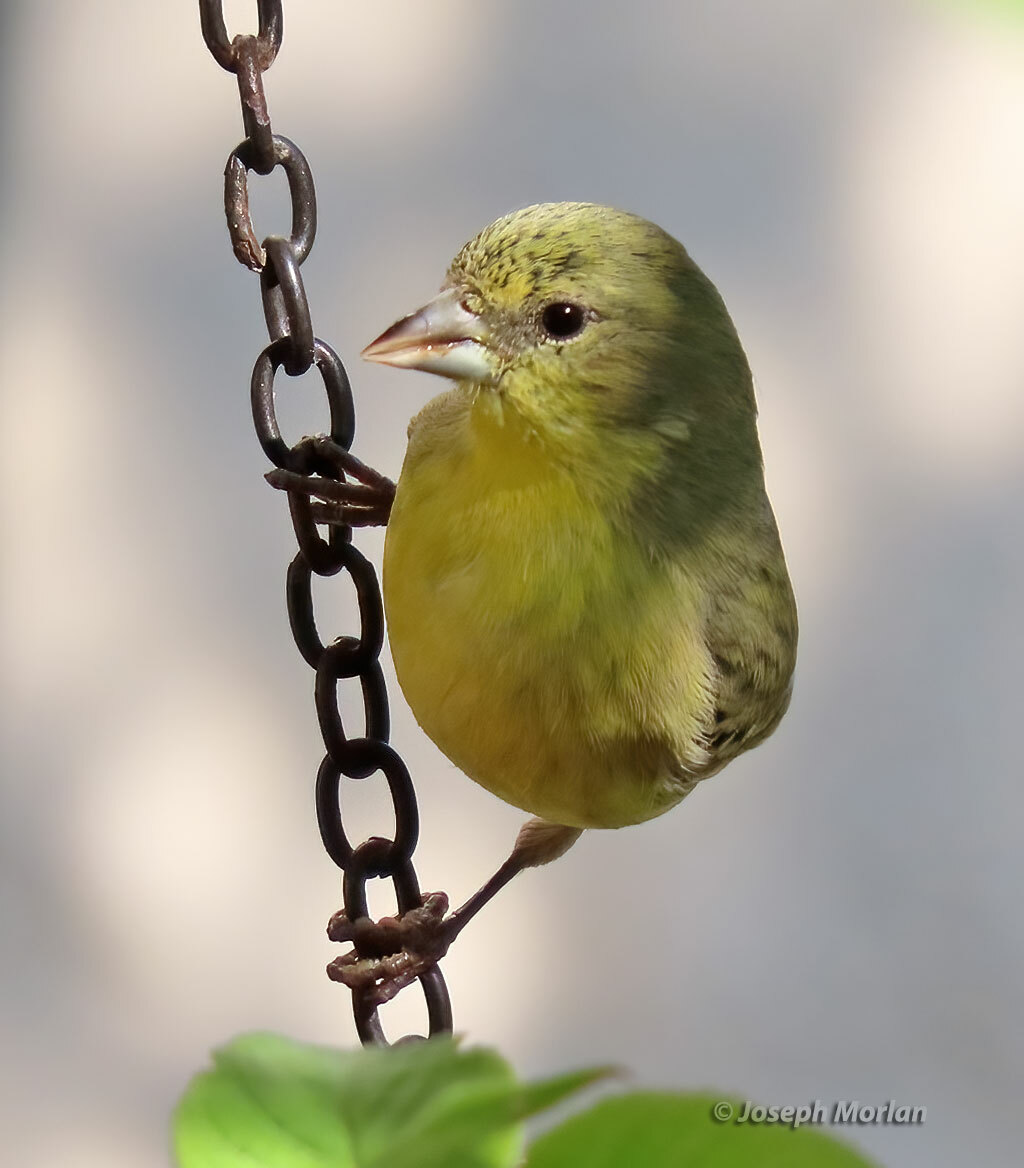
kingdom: Animalia
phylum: Chordata
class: Aves
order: Passeriformes
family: Fringillidae
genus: Spinus
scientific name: Spinus psaltria
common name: Lesser goldfinch
